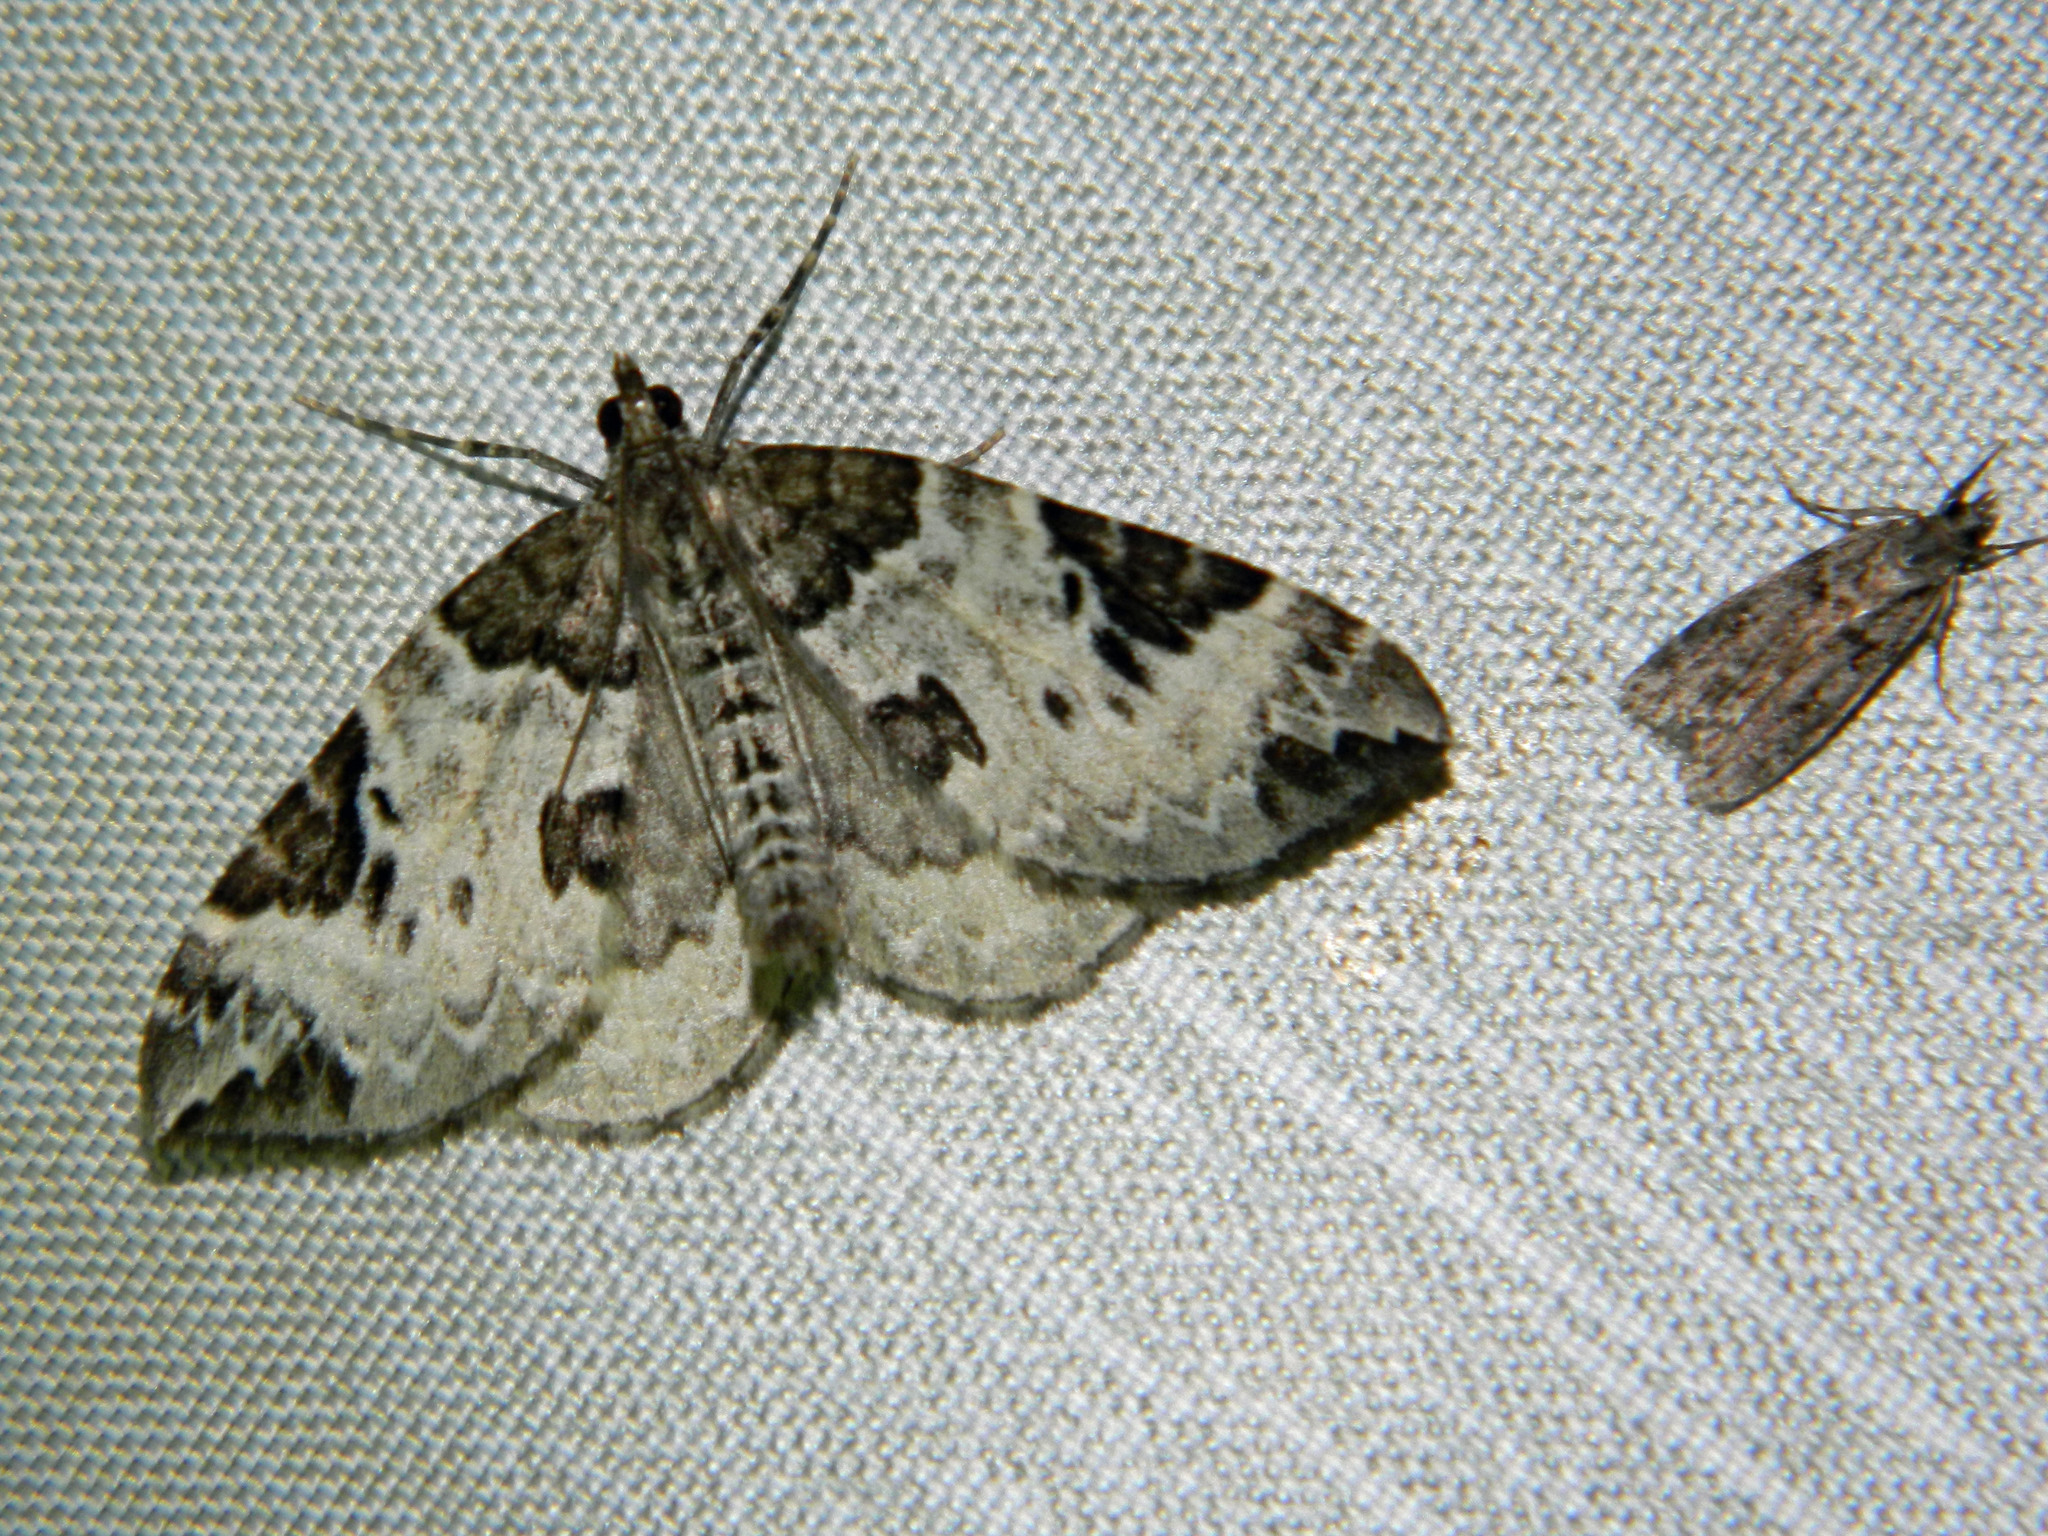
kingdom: Animalia
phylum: Arthropoda
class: Insecta
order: Lepidoptera
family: Geometridae
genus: Eulithis
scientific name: Eulithis explanata
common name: White eulithis
